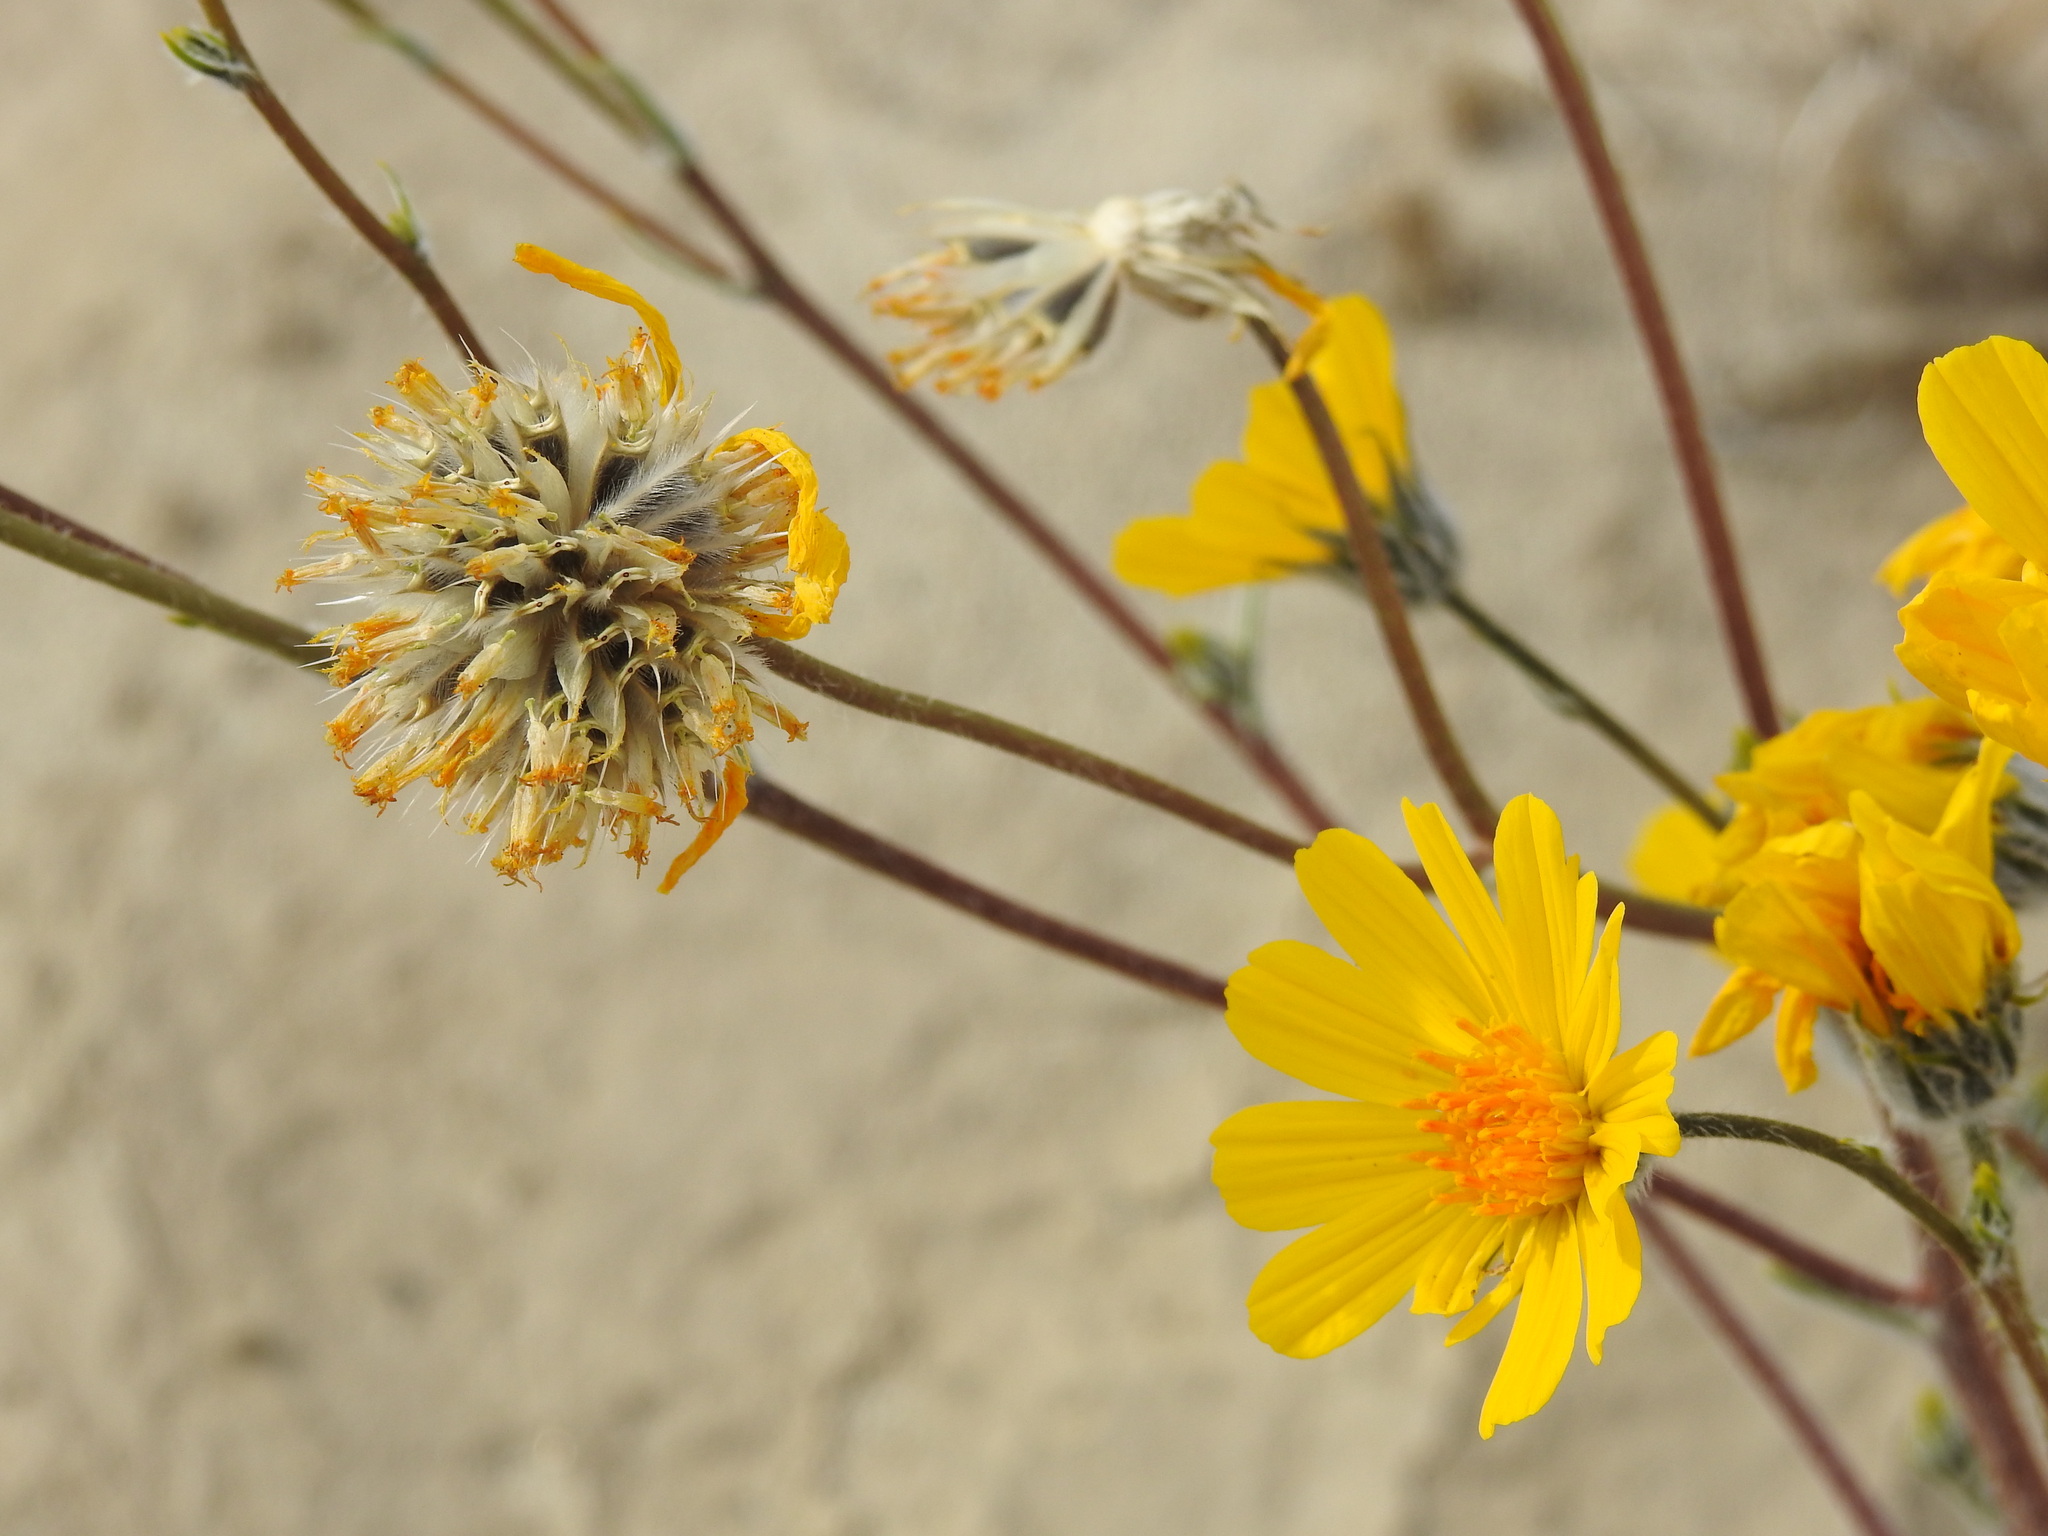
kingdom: Plantae
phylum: Tracheophyta
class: Magnoliopsida
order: Asterales
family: Asteraceae
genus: Geraea
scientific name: Geraea canescens
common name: Desert-gold
